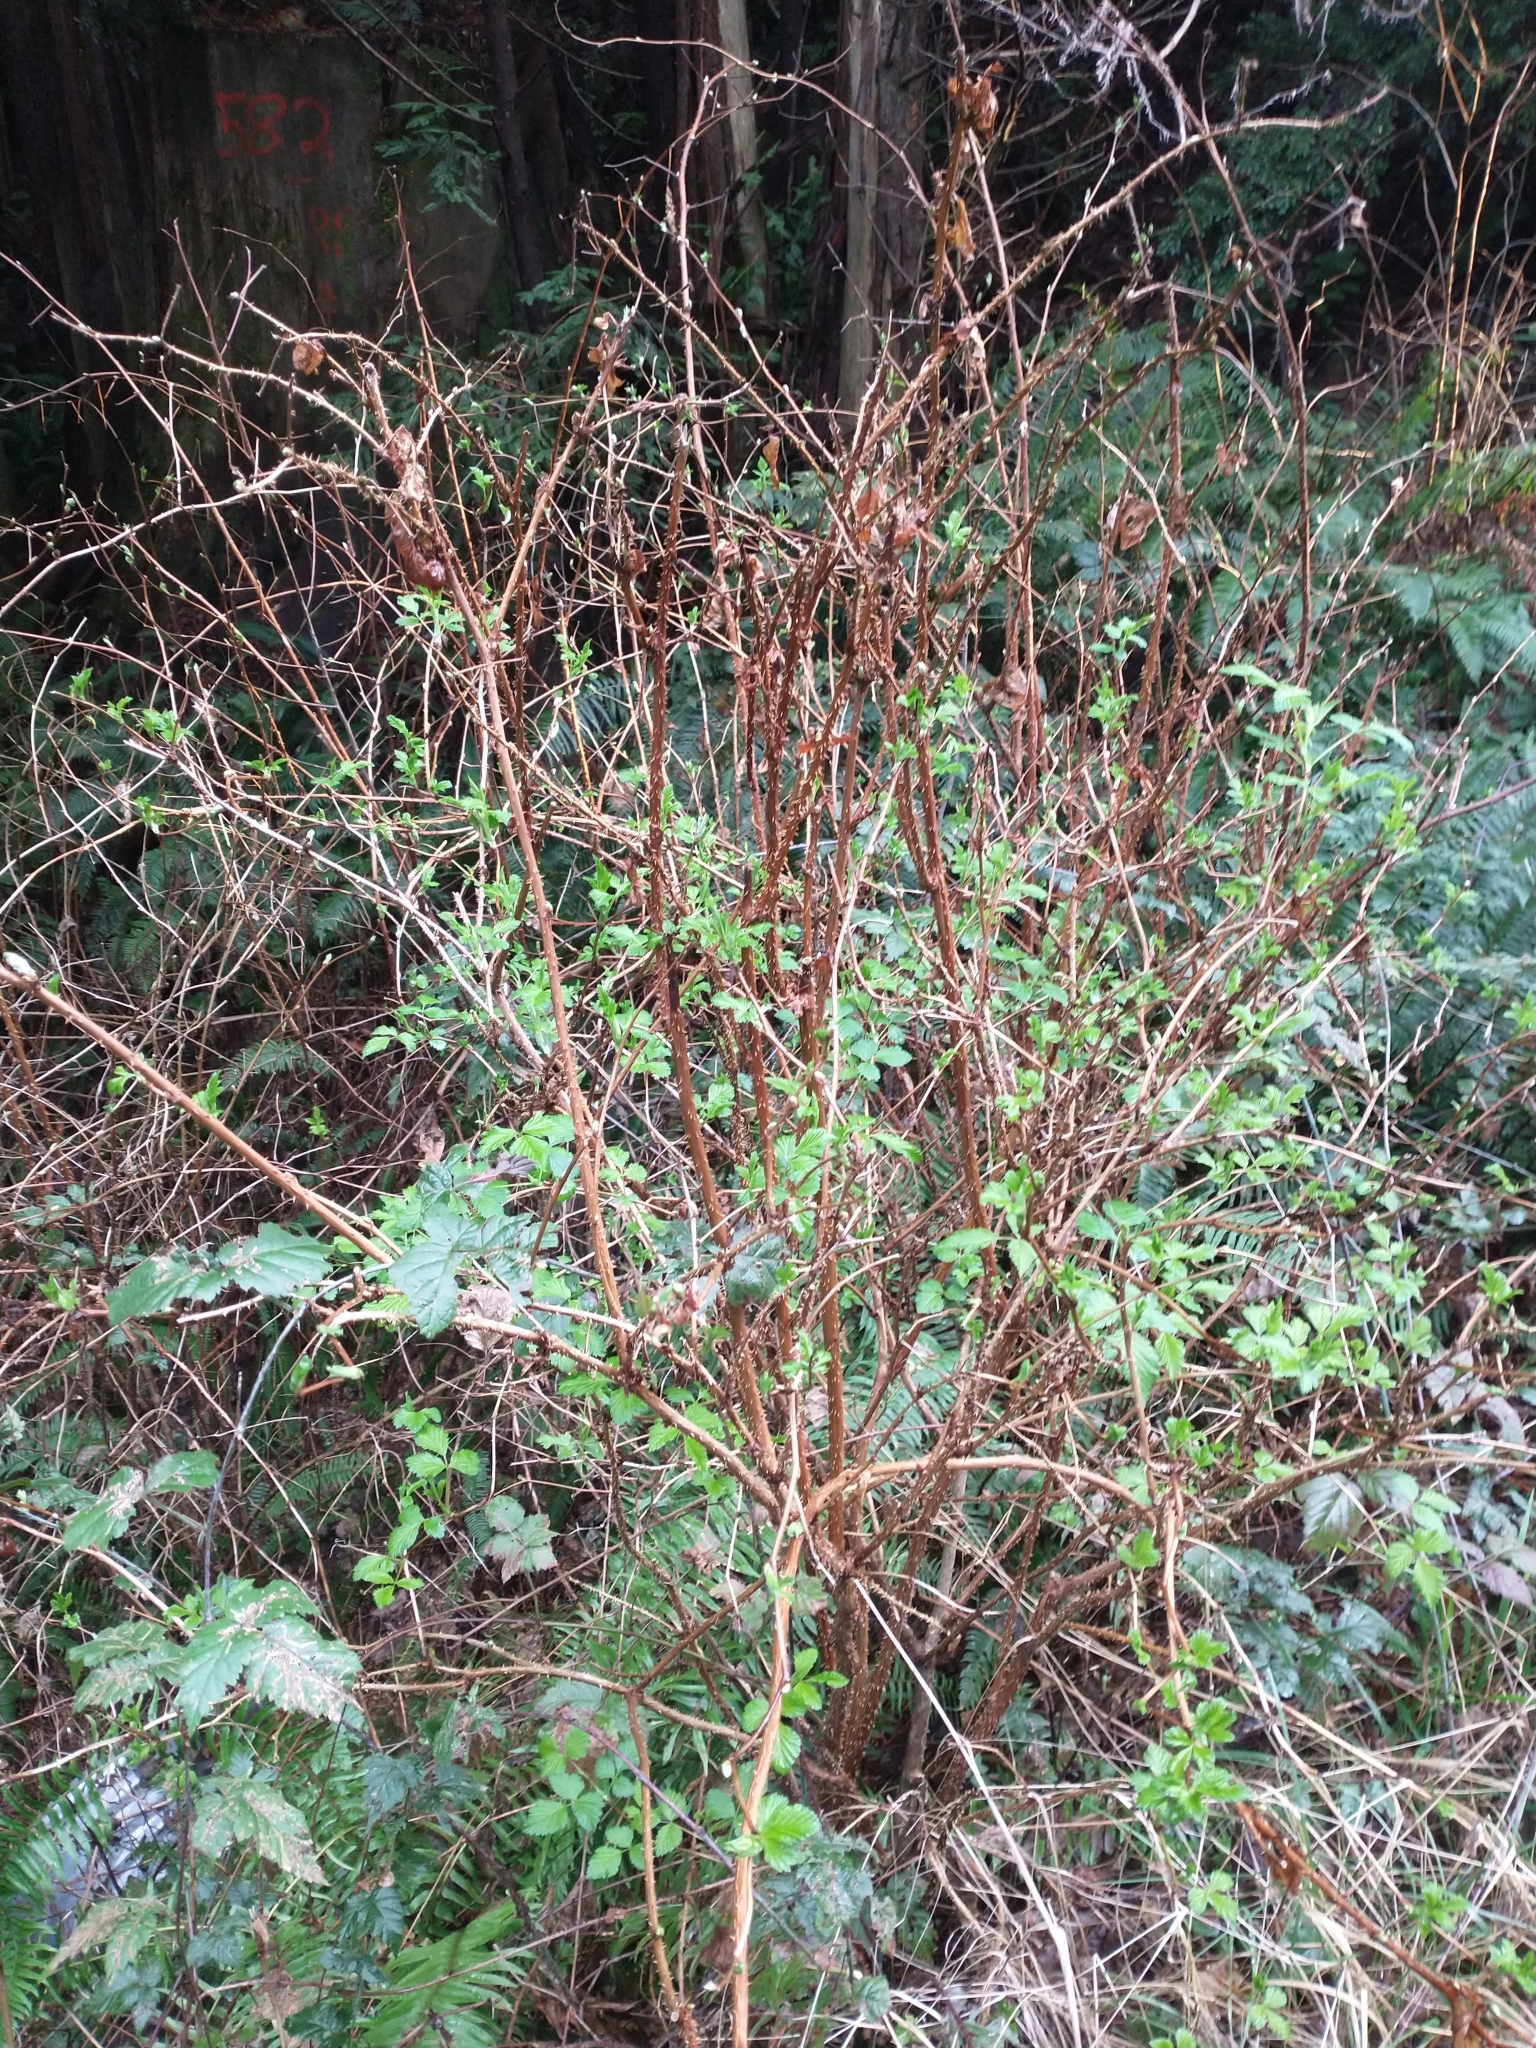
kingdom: Plantae
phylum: Tracheophyta
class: Magnoliopsida
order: Rosales
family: Rosaceae
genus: Rubus
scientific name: Rubus spectabilis
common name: Salmonberry
